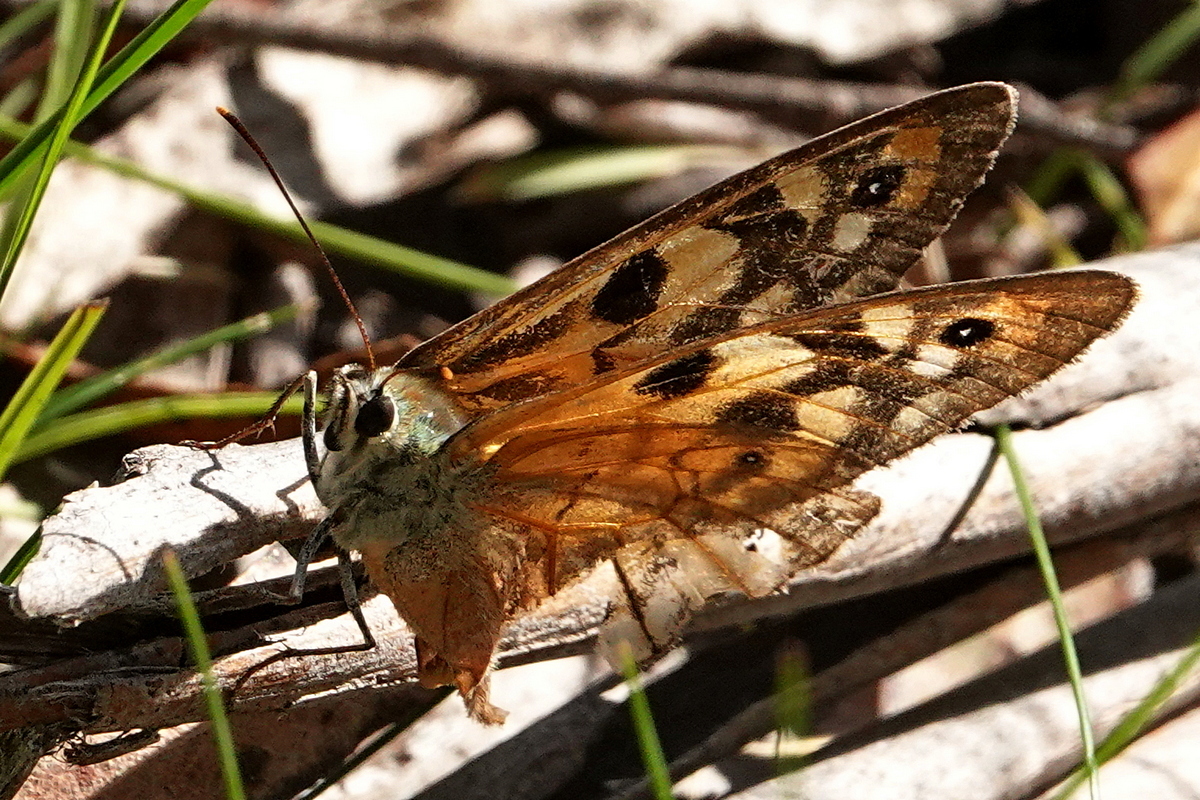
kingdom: Animalia
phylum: Arthropoda
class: Insecta
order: Lepidoptera
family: Nymphalidae
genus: Heteronympha
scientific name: Heteronympha penelope
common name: Shouldered brown
